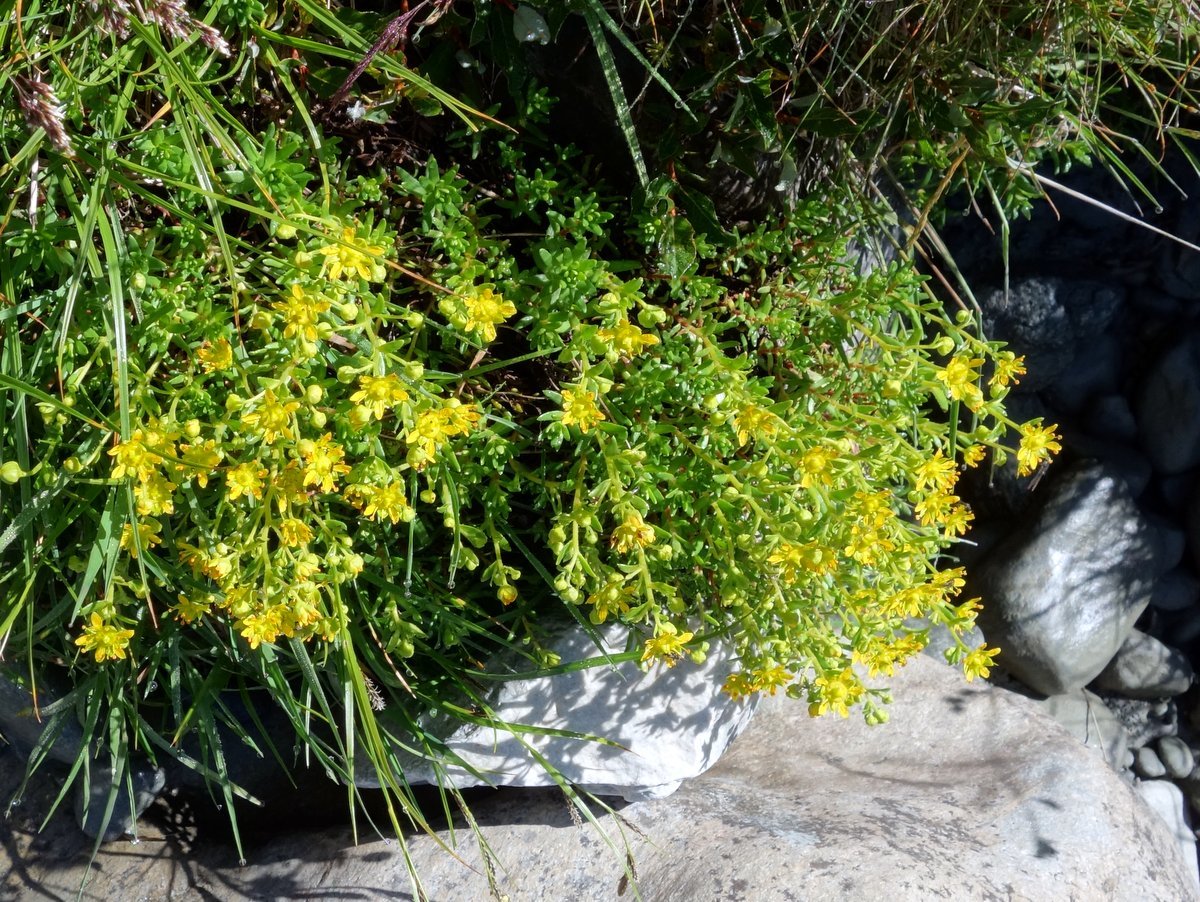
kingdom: Plantae
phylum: Tracheophyta
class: Magnoliopsida
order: Saxifragales
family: Saxifragaceae
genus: Saxifraga
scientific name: Saxifraga aizoides
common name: Yellow mountain saxifrage
